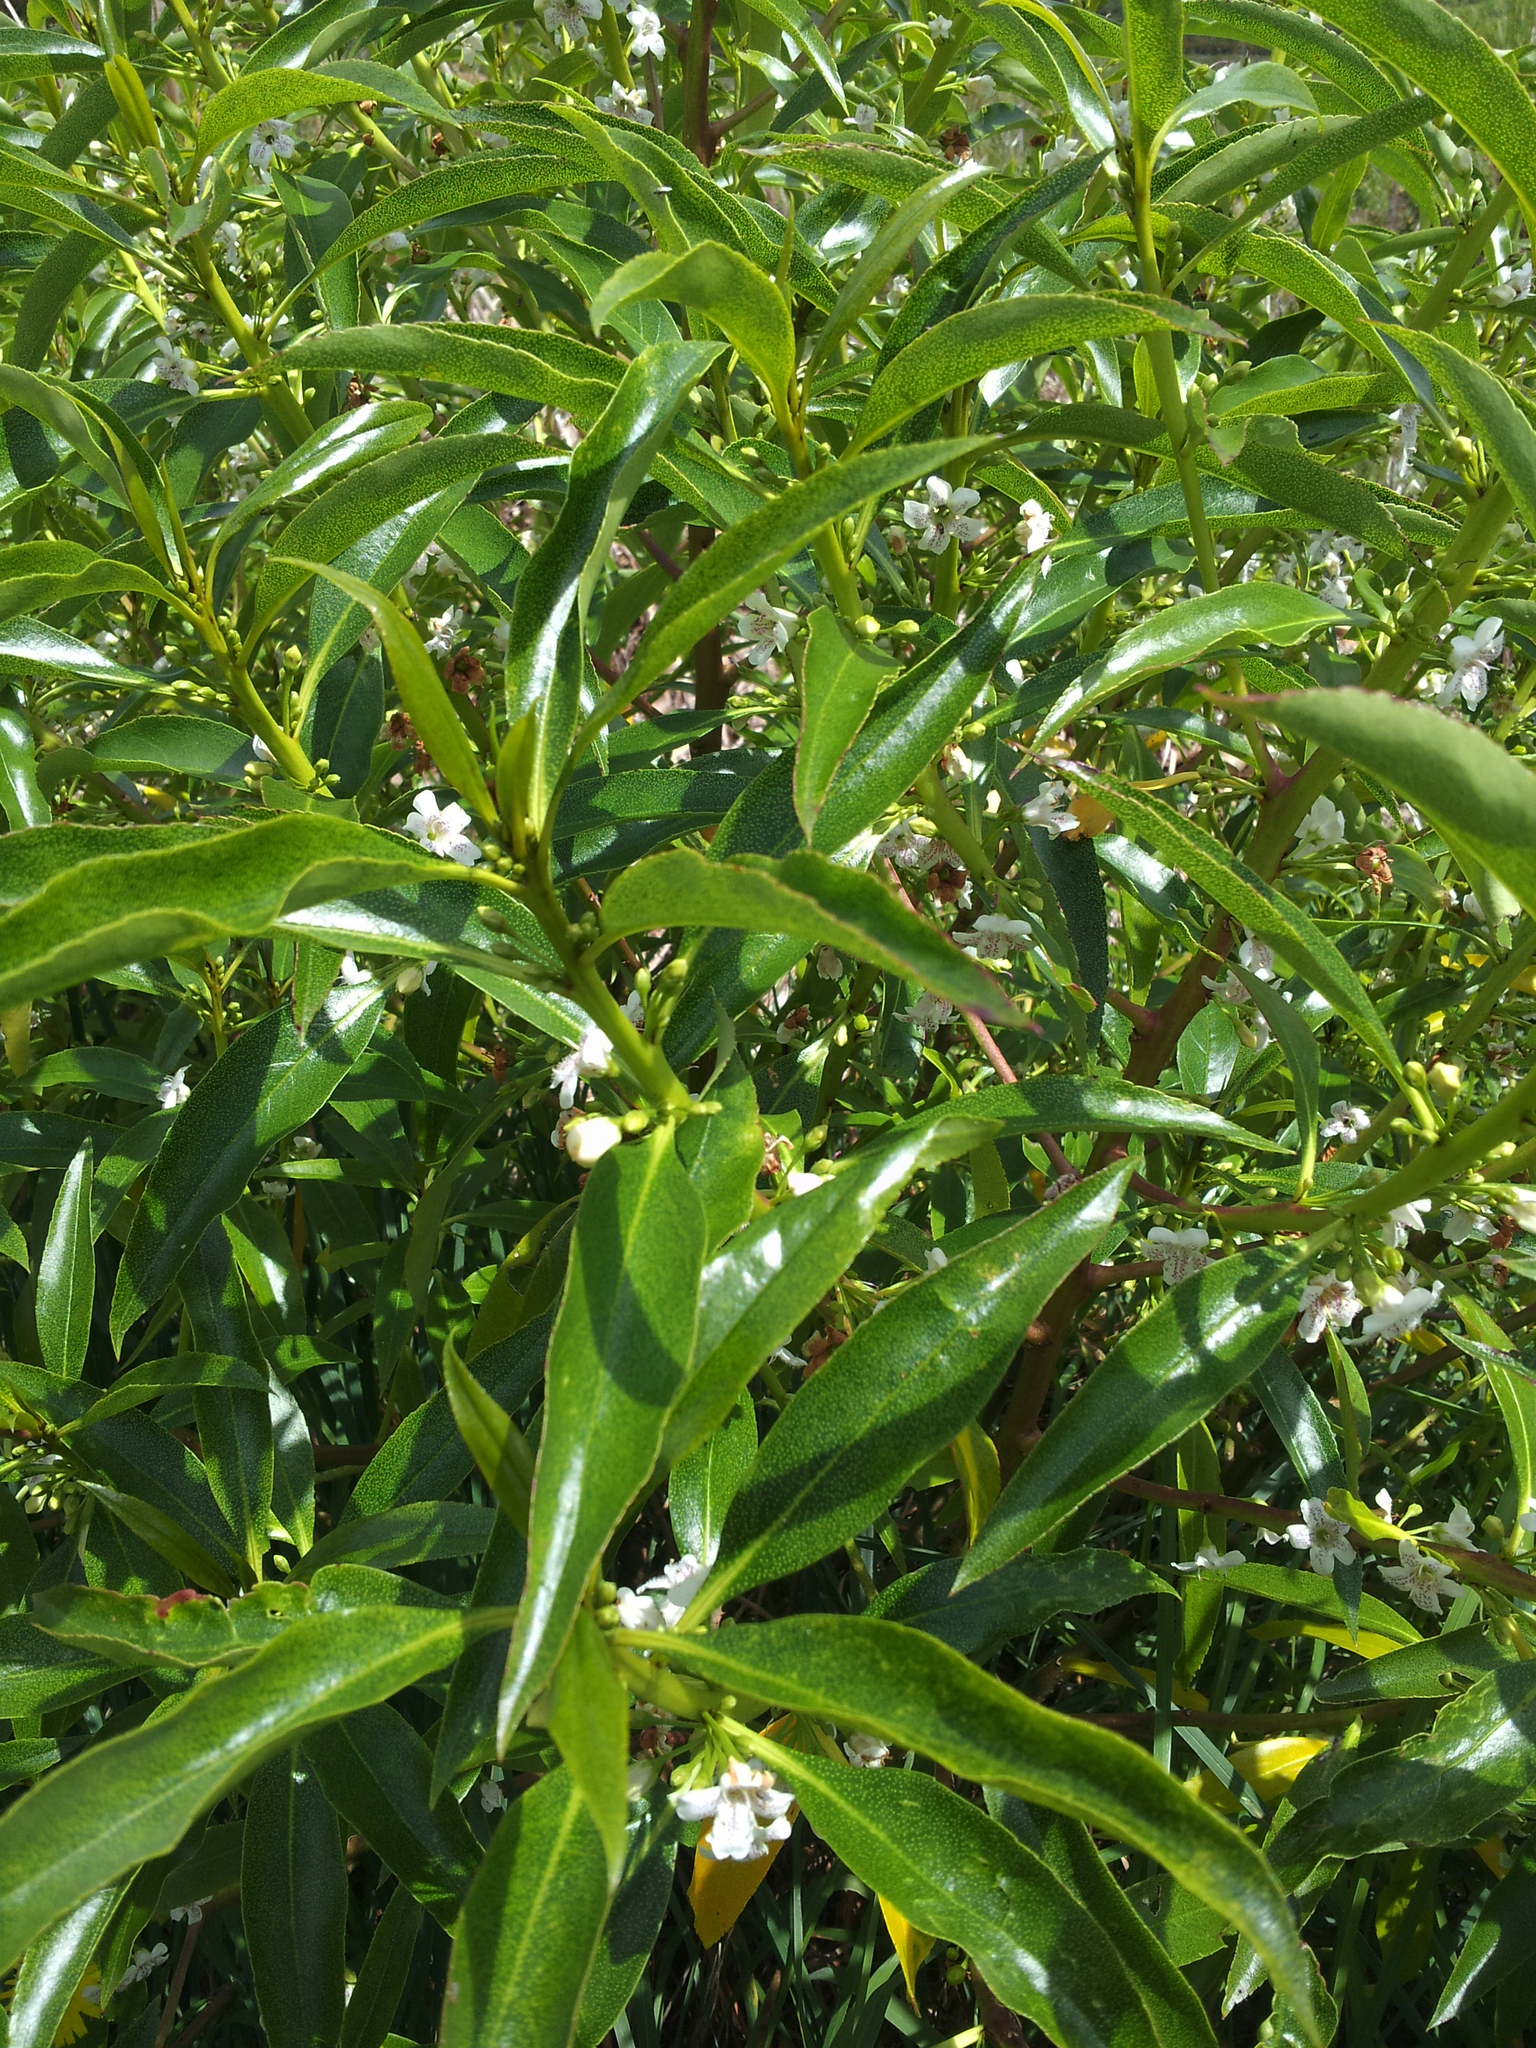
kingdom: Plantae
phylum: Tracheophyta
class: Magnoliopsida
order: Lamiales
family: Scrophulariaceae
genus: Myoporum
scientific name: Myoporum laetum
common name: Ngaio tree
